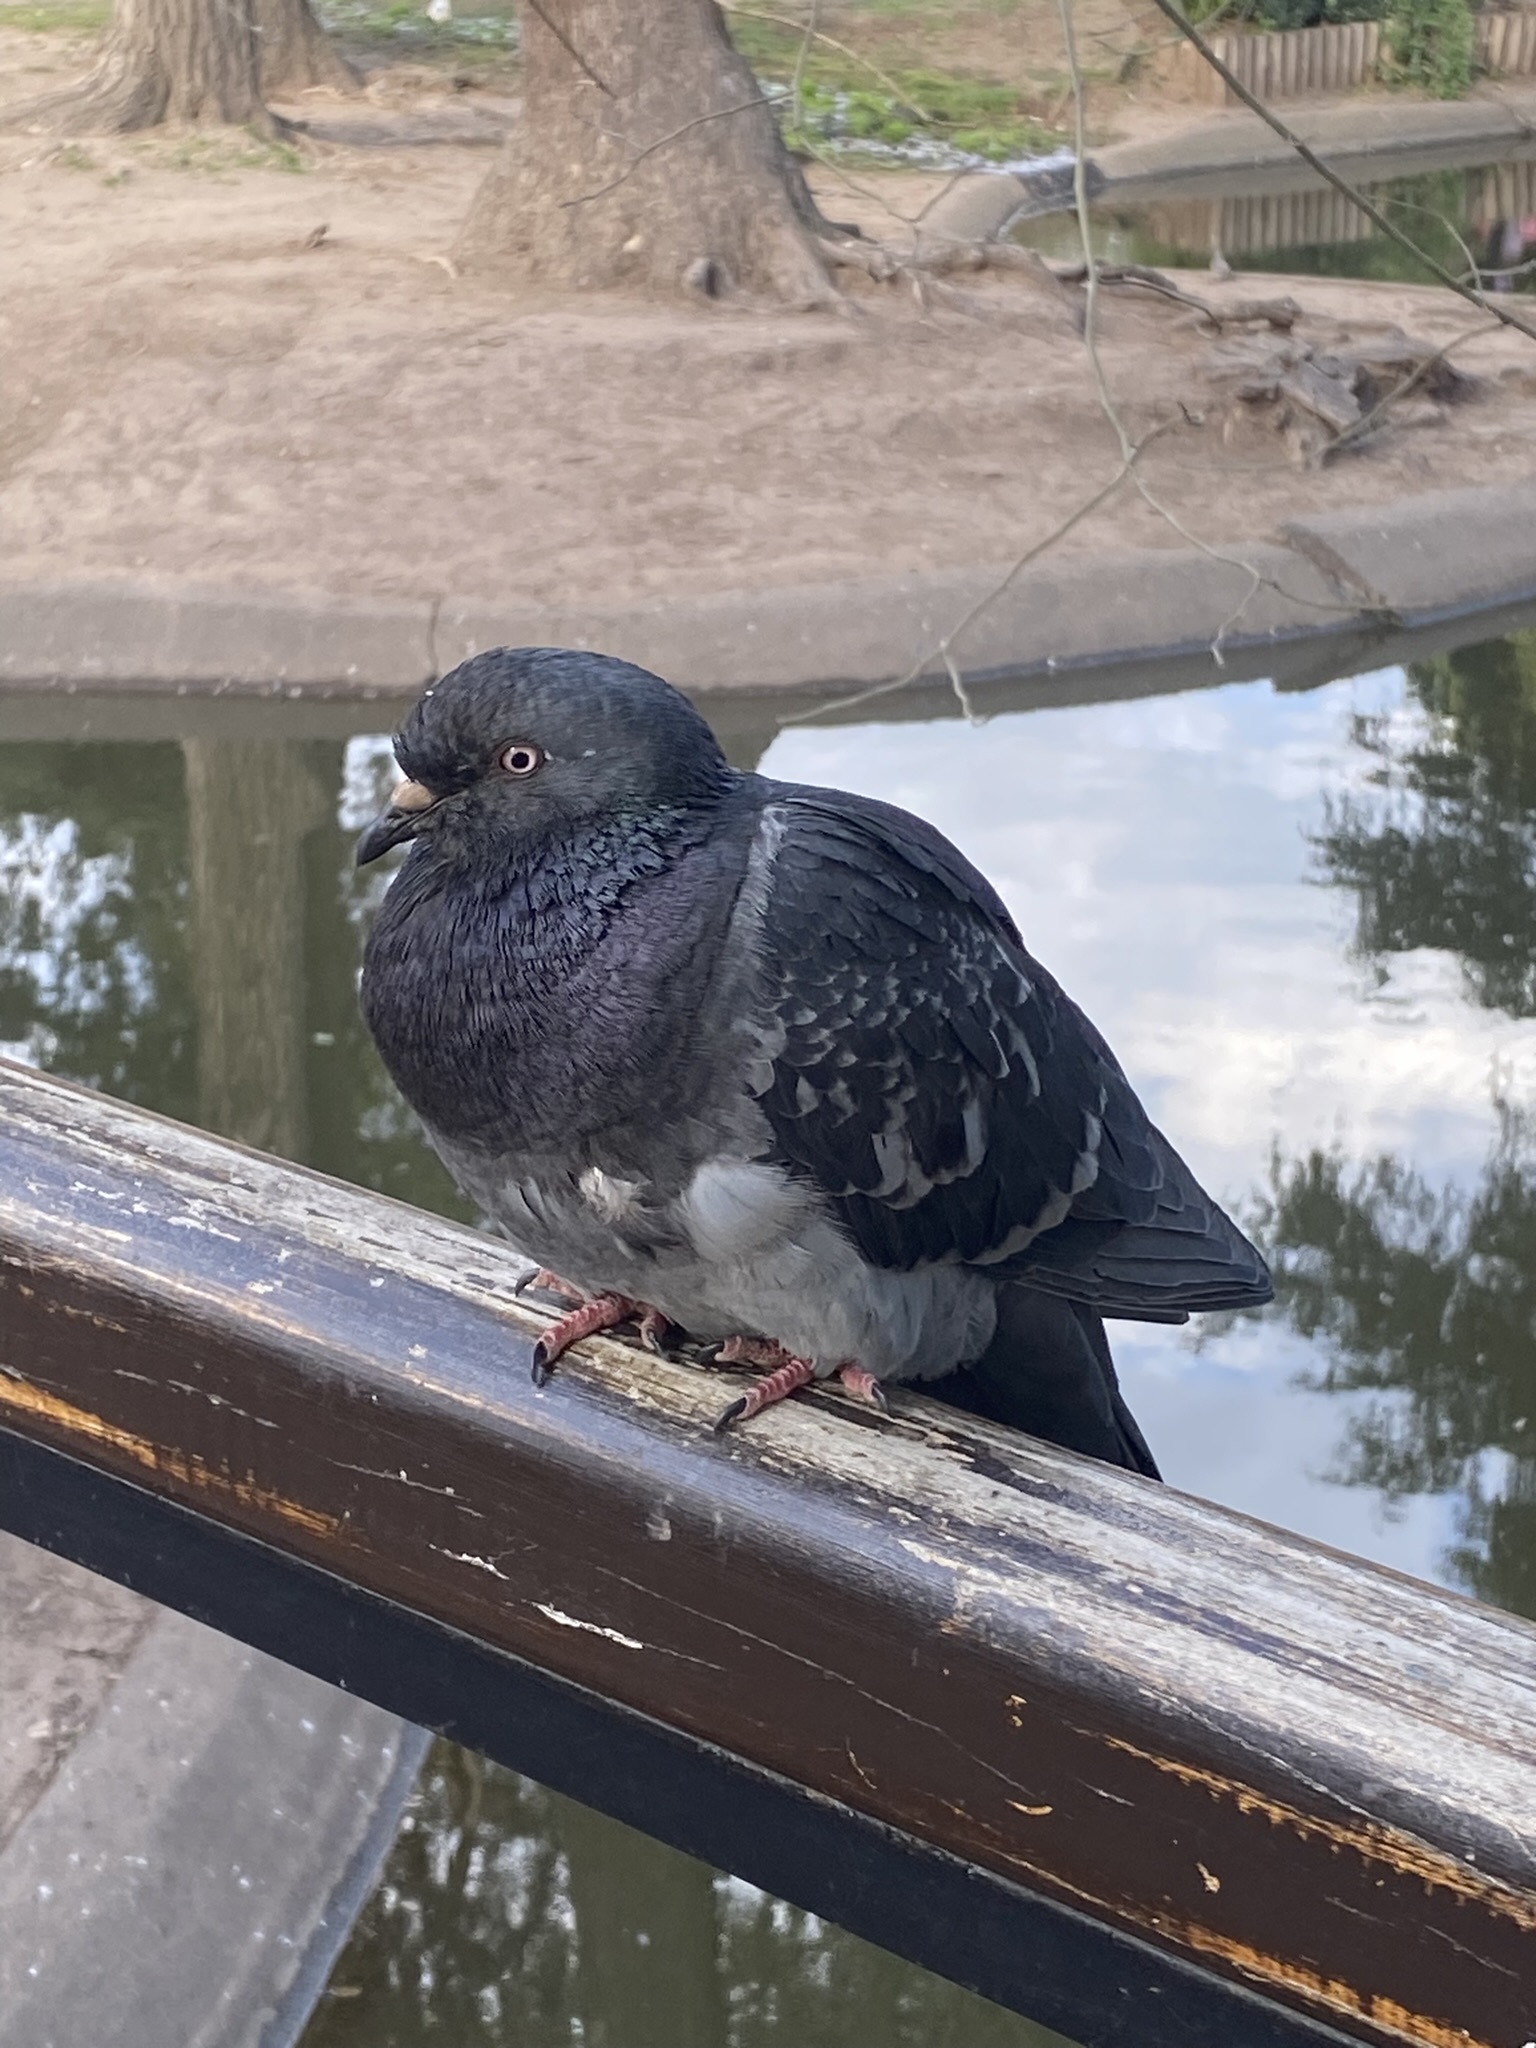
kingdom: Animalia
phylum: Chordata
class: Aves
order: Columbiformes
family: Columbidae
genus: Columba
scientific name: Columba livia
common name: Rock pigeon
